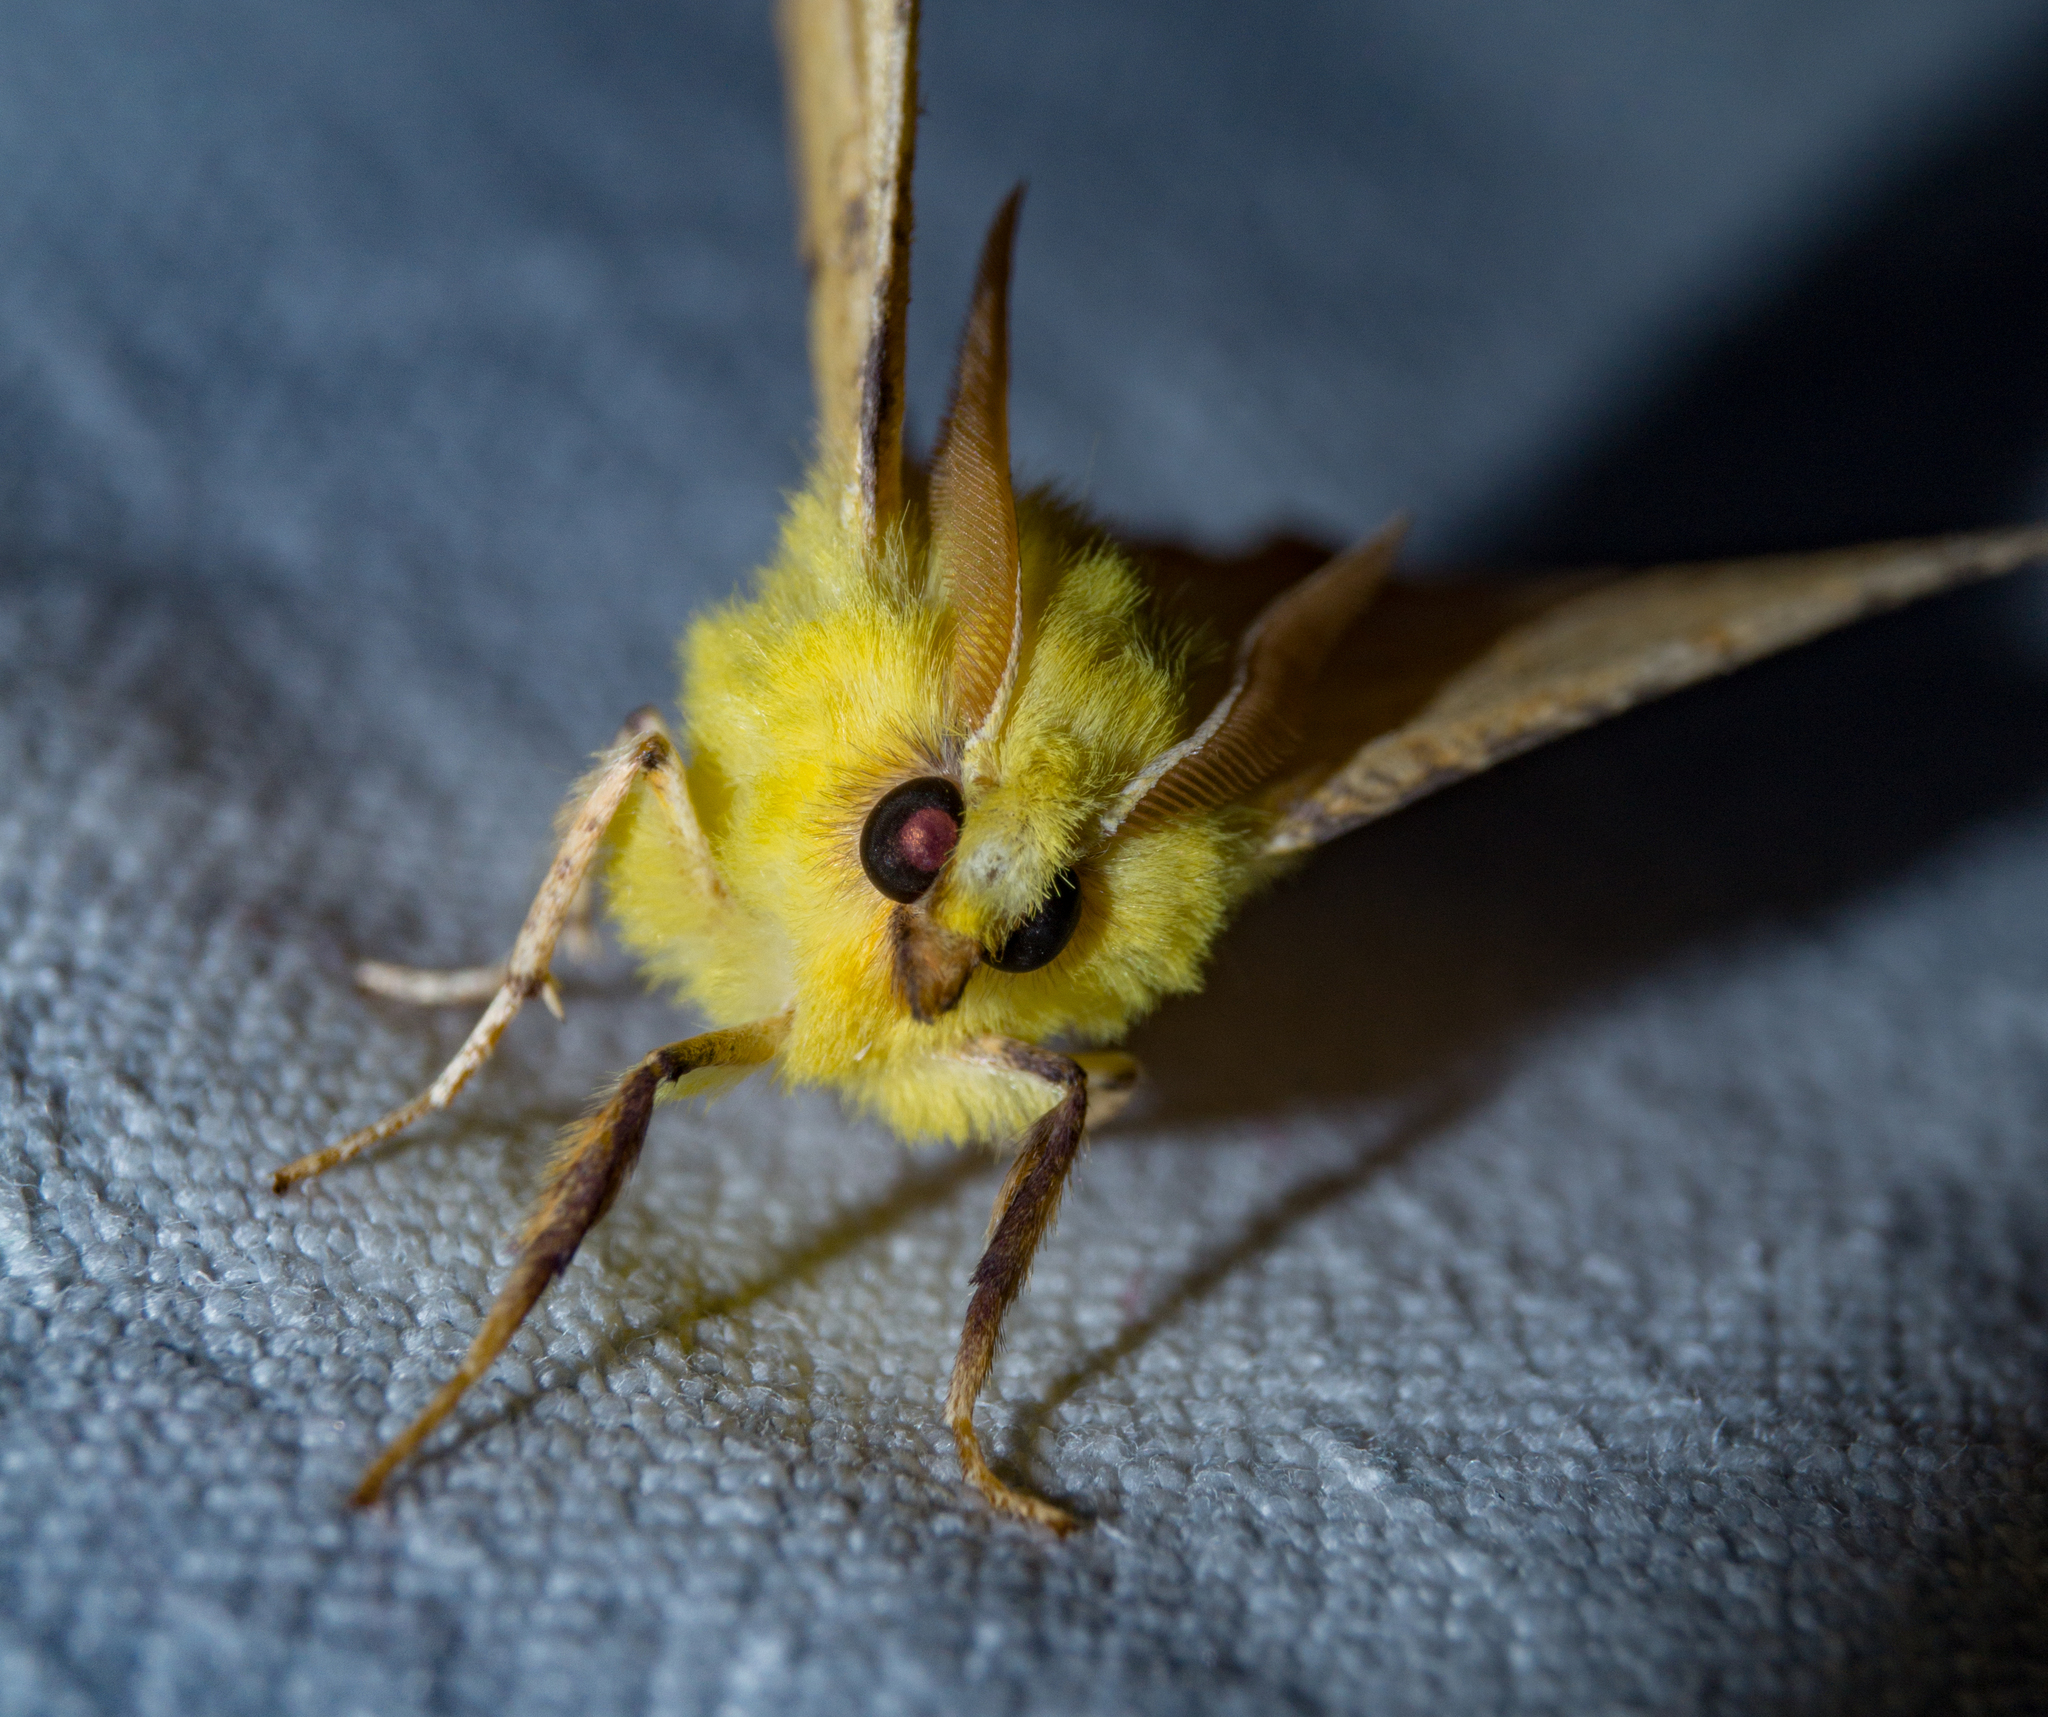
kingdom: Animalia
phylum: Arthropoda
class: Insecta
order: Lepidoptera
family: Geometridae
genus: Ennomos
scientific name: Ennomos alniaria
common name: Canary-shouldered thorn
